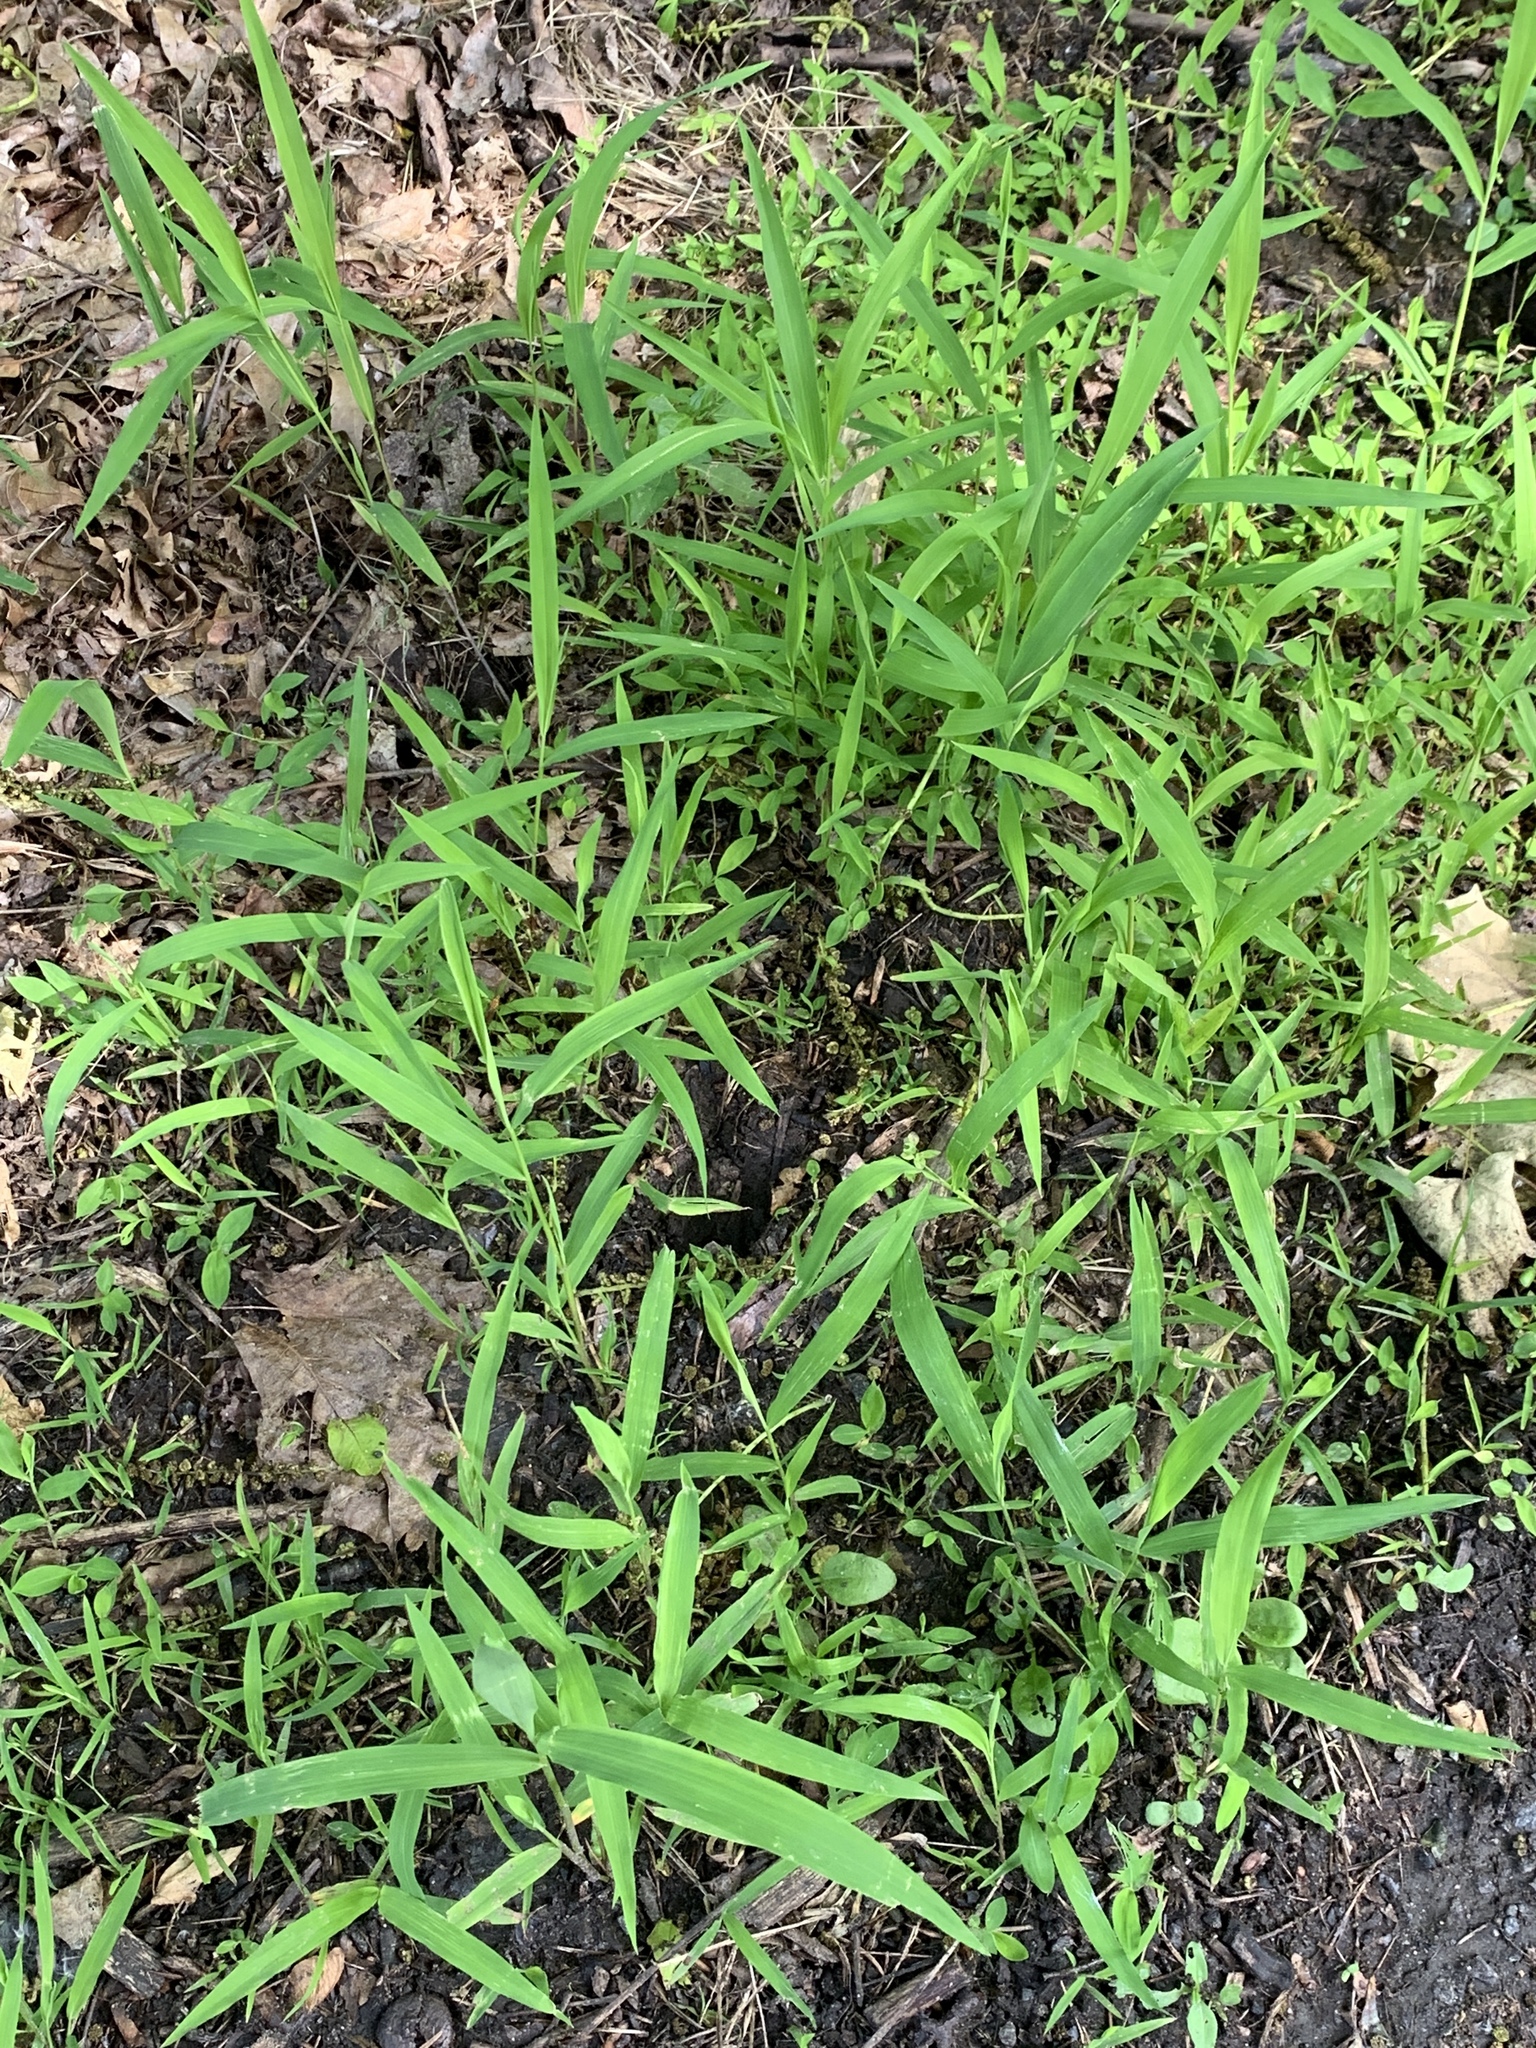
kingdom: Plantae
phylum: Tracheophyta
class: Liliopsida
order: Poales
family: Poaceae
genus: Leersia
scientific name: Leersia virginica
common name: White cutgrass
